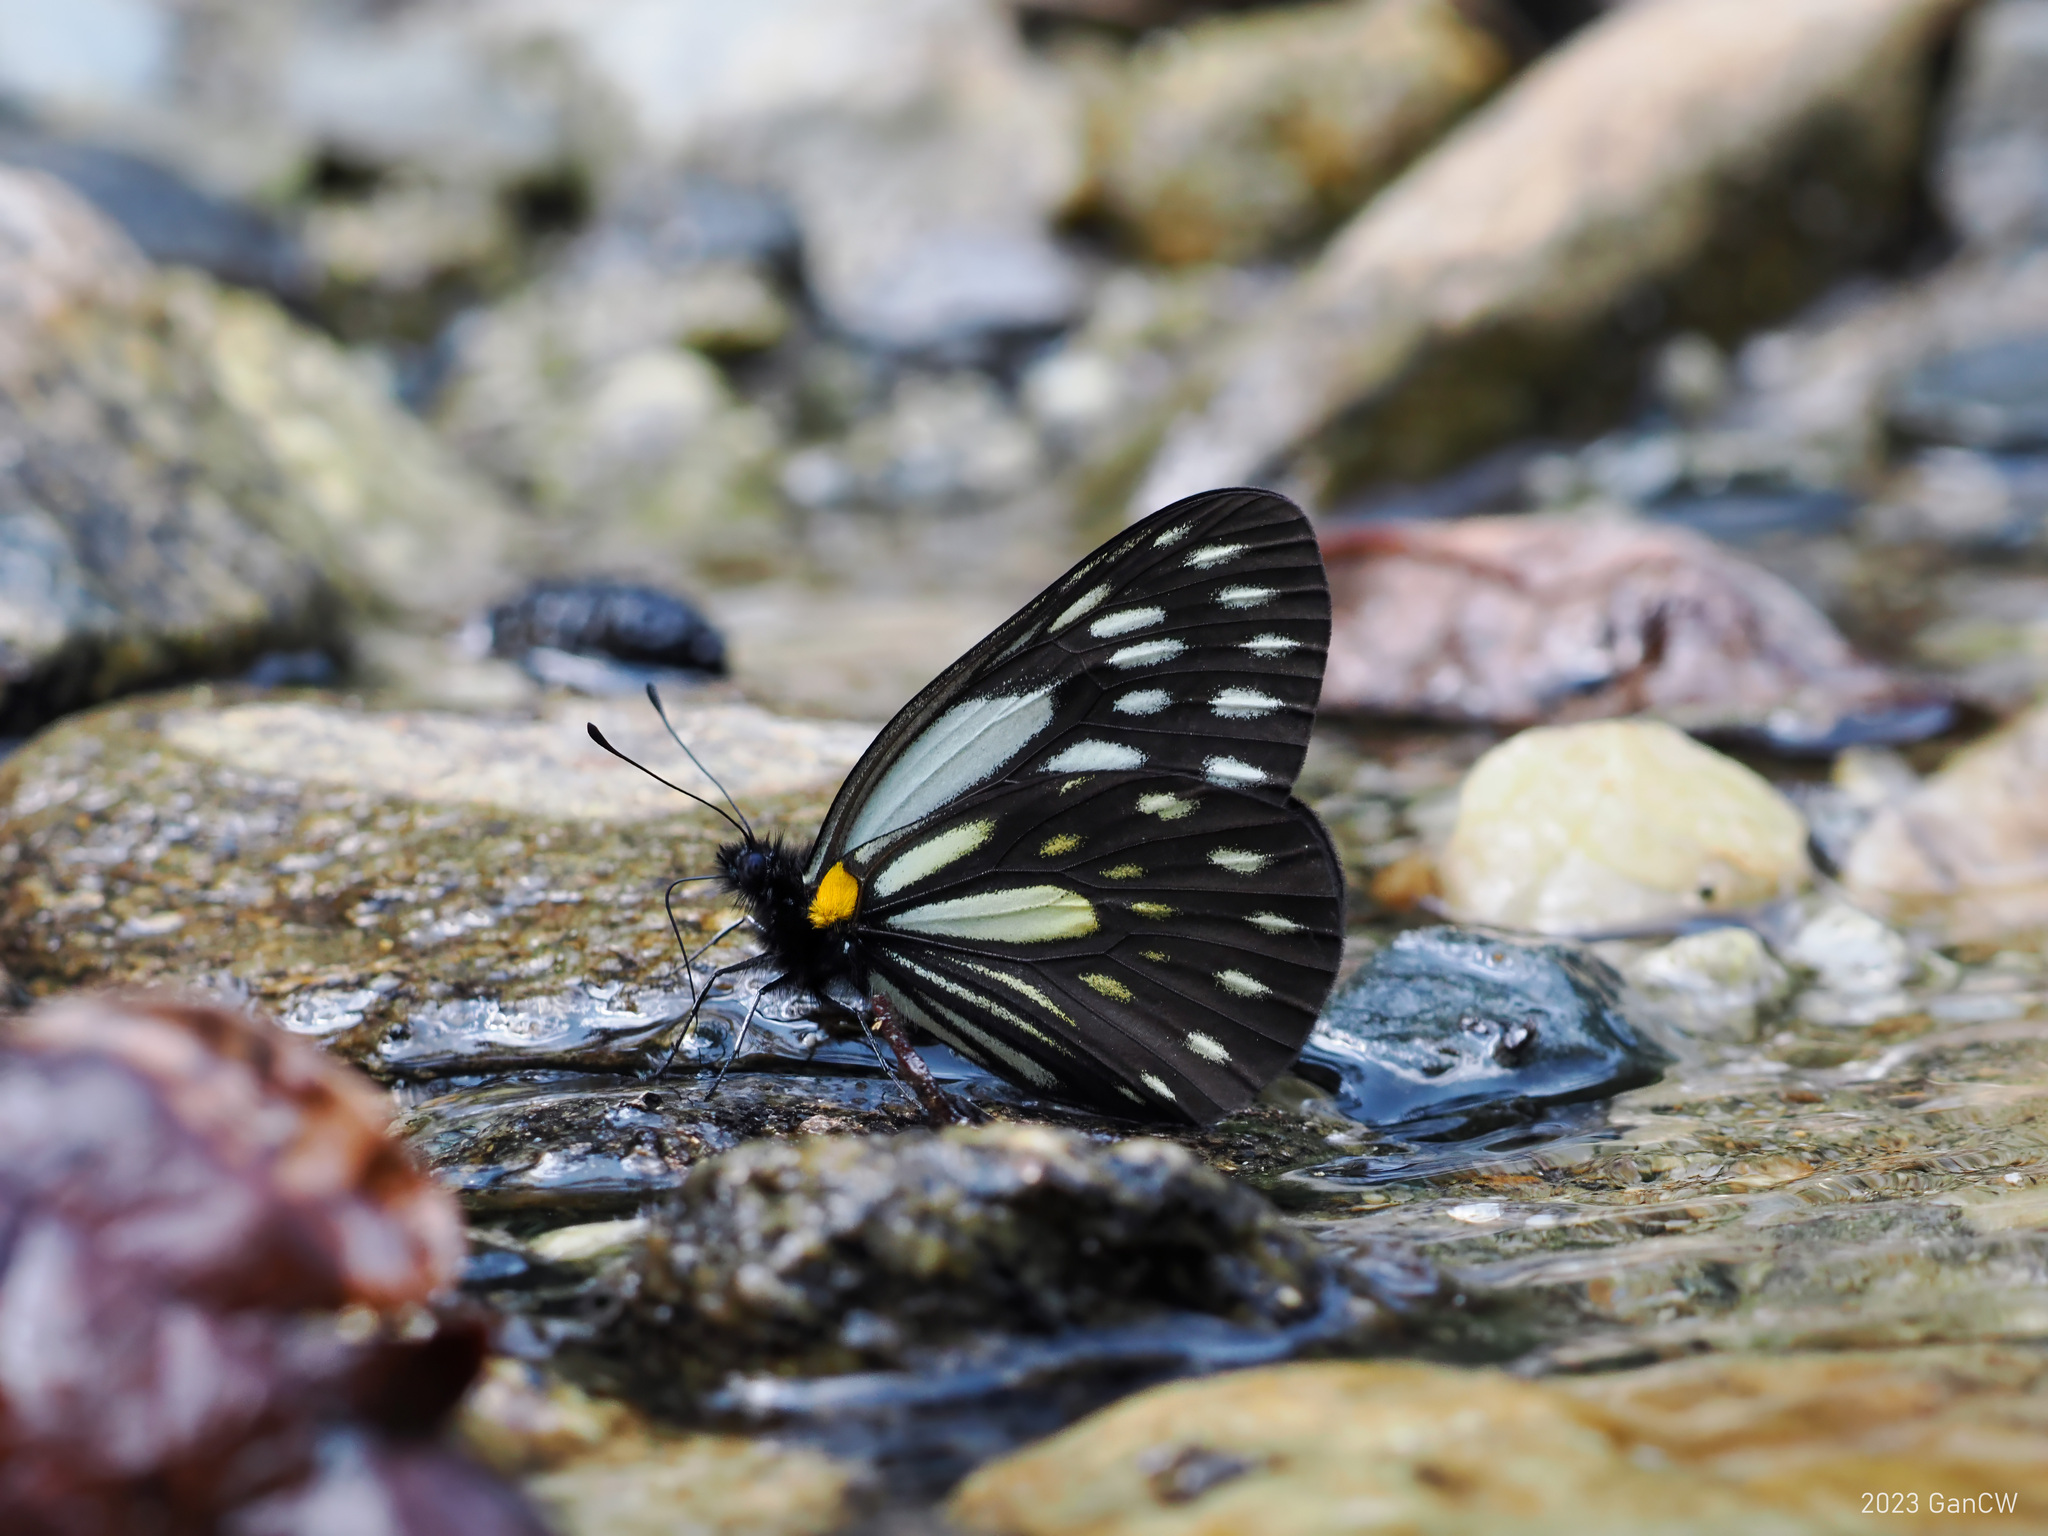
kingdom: Animalia
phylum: Arthropoda
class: Insecta
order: Lepidoptera
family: Pieridae
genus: Aporia
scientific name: Aporia agathon
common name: Great blackvein
